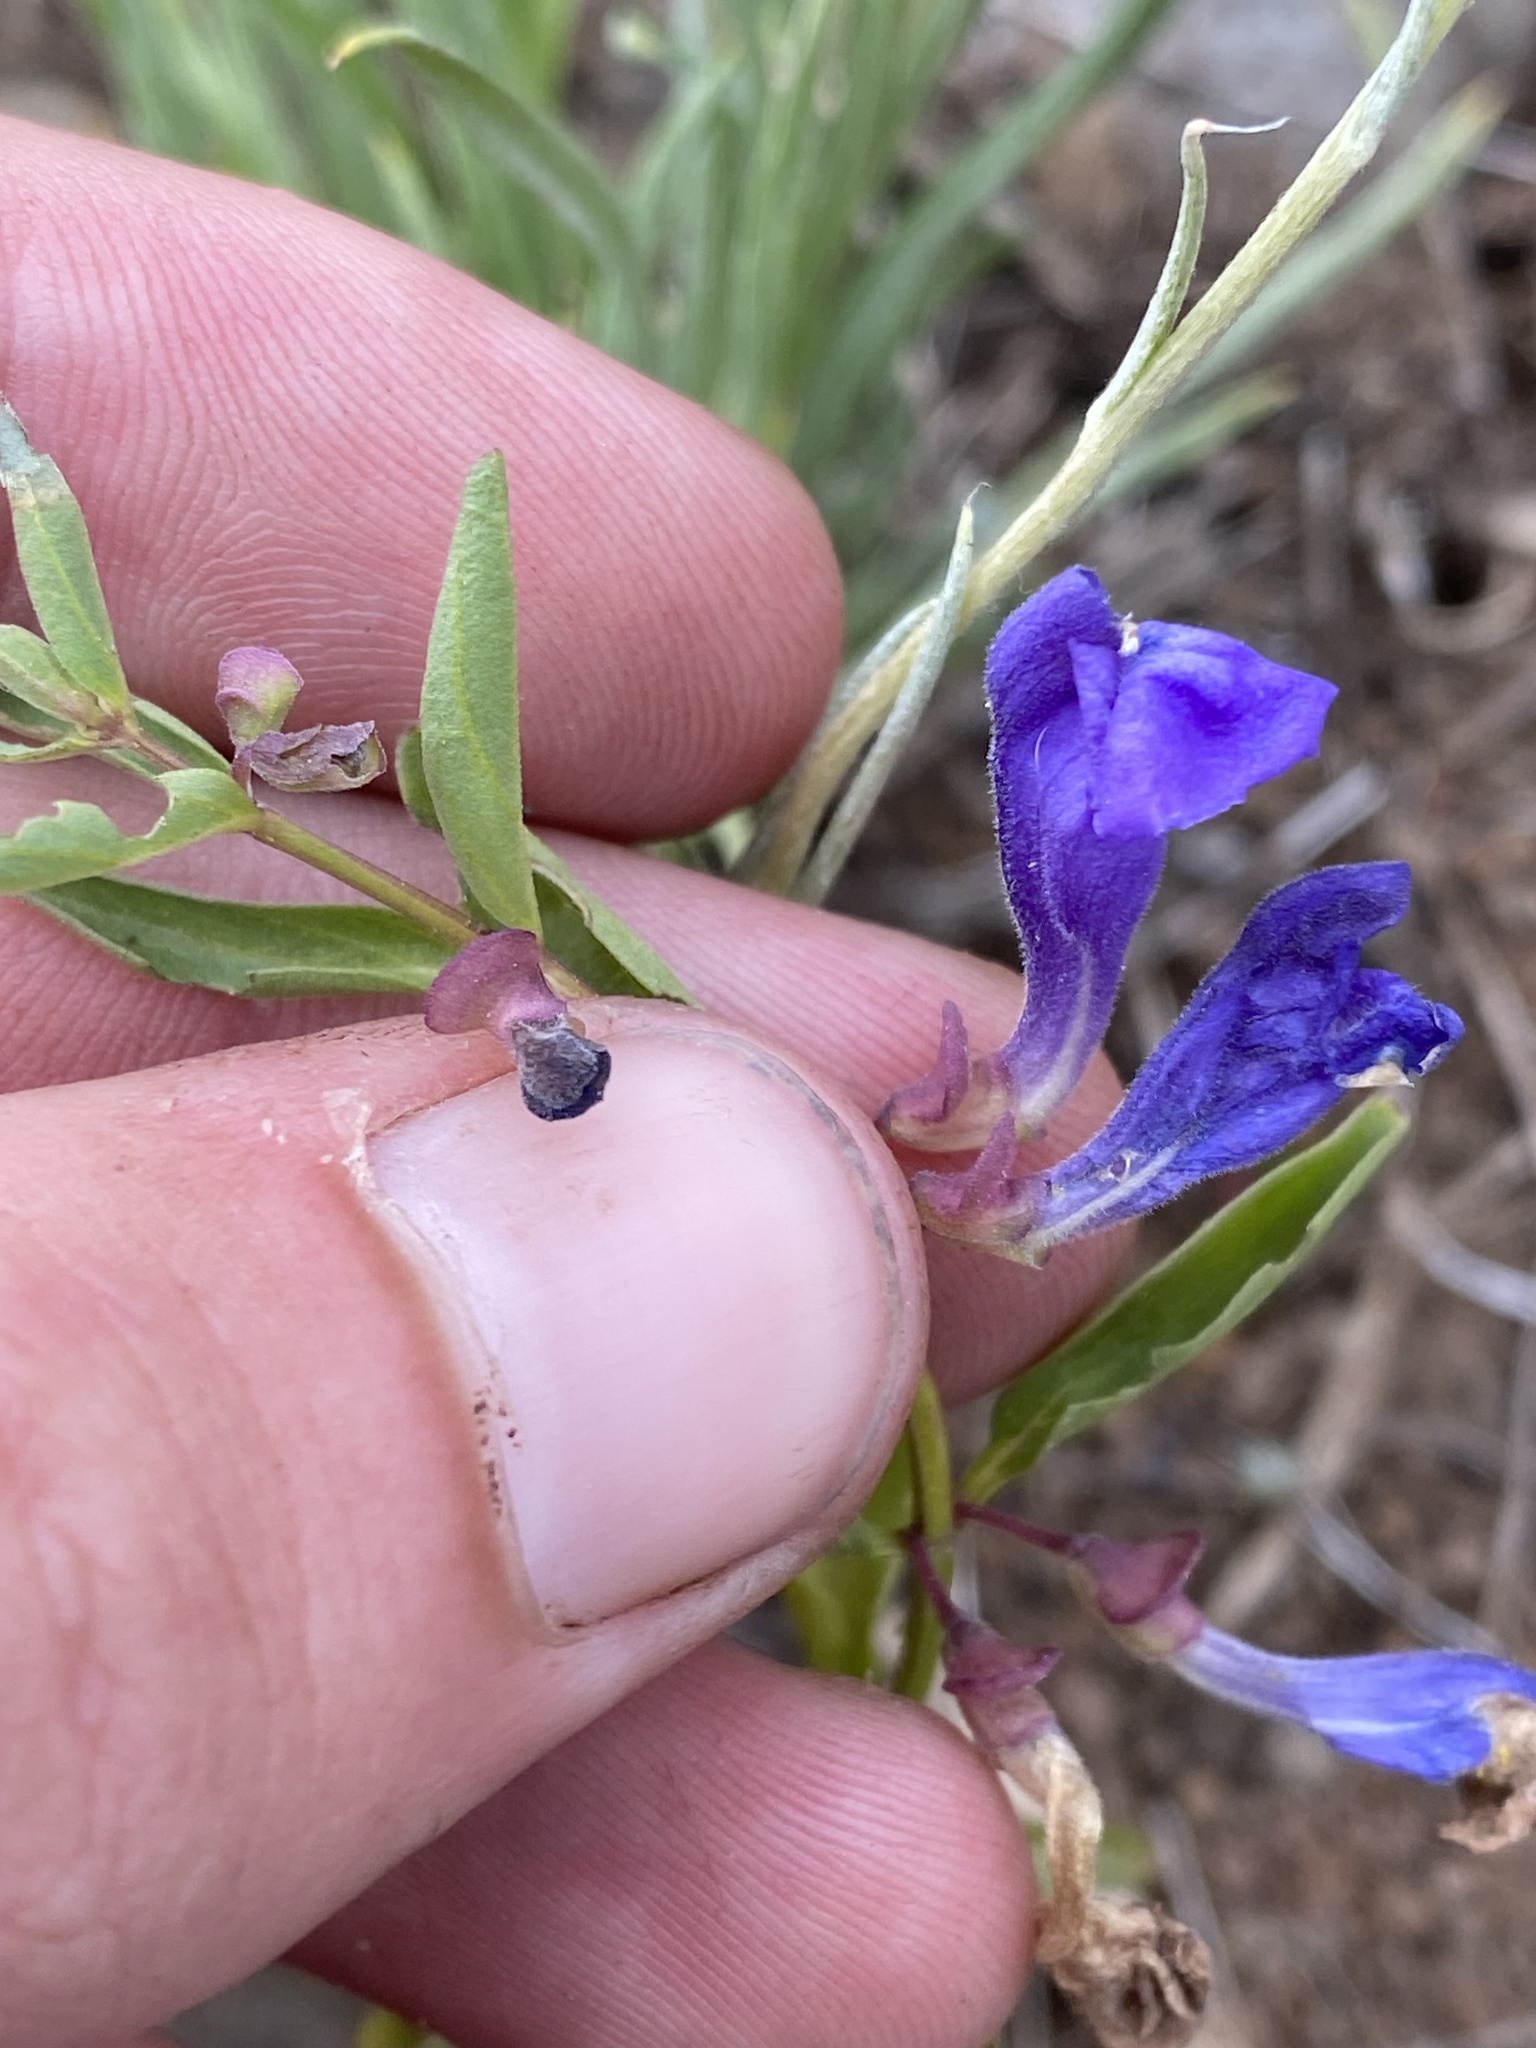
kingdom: Plantae
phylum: Tracheophyta
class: Magnoliopsida
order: Lamiales
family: Lamiaceae
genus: Scutellaria
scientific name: Scutellaria angustifolia
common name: Narrow-leaved skullcap
